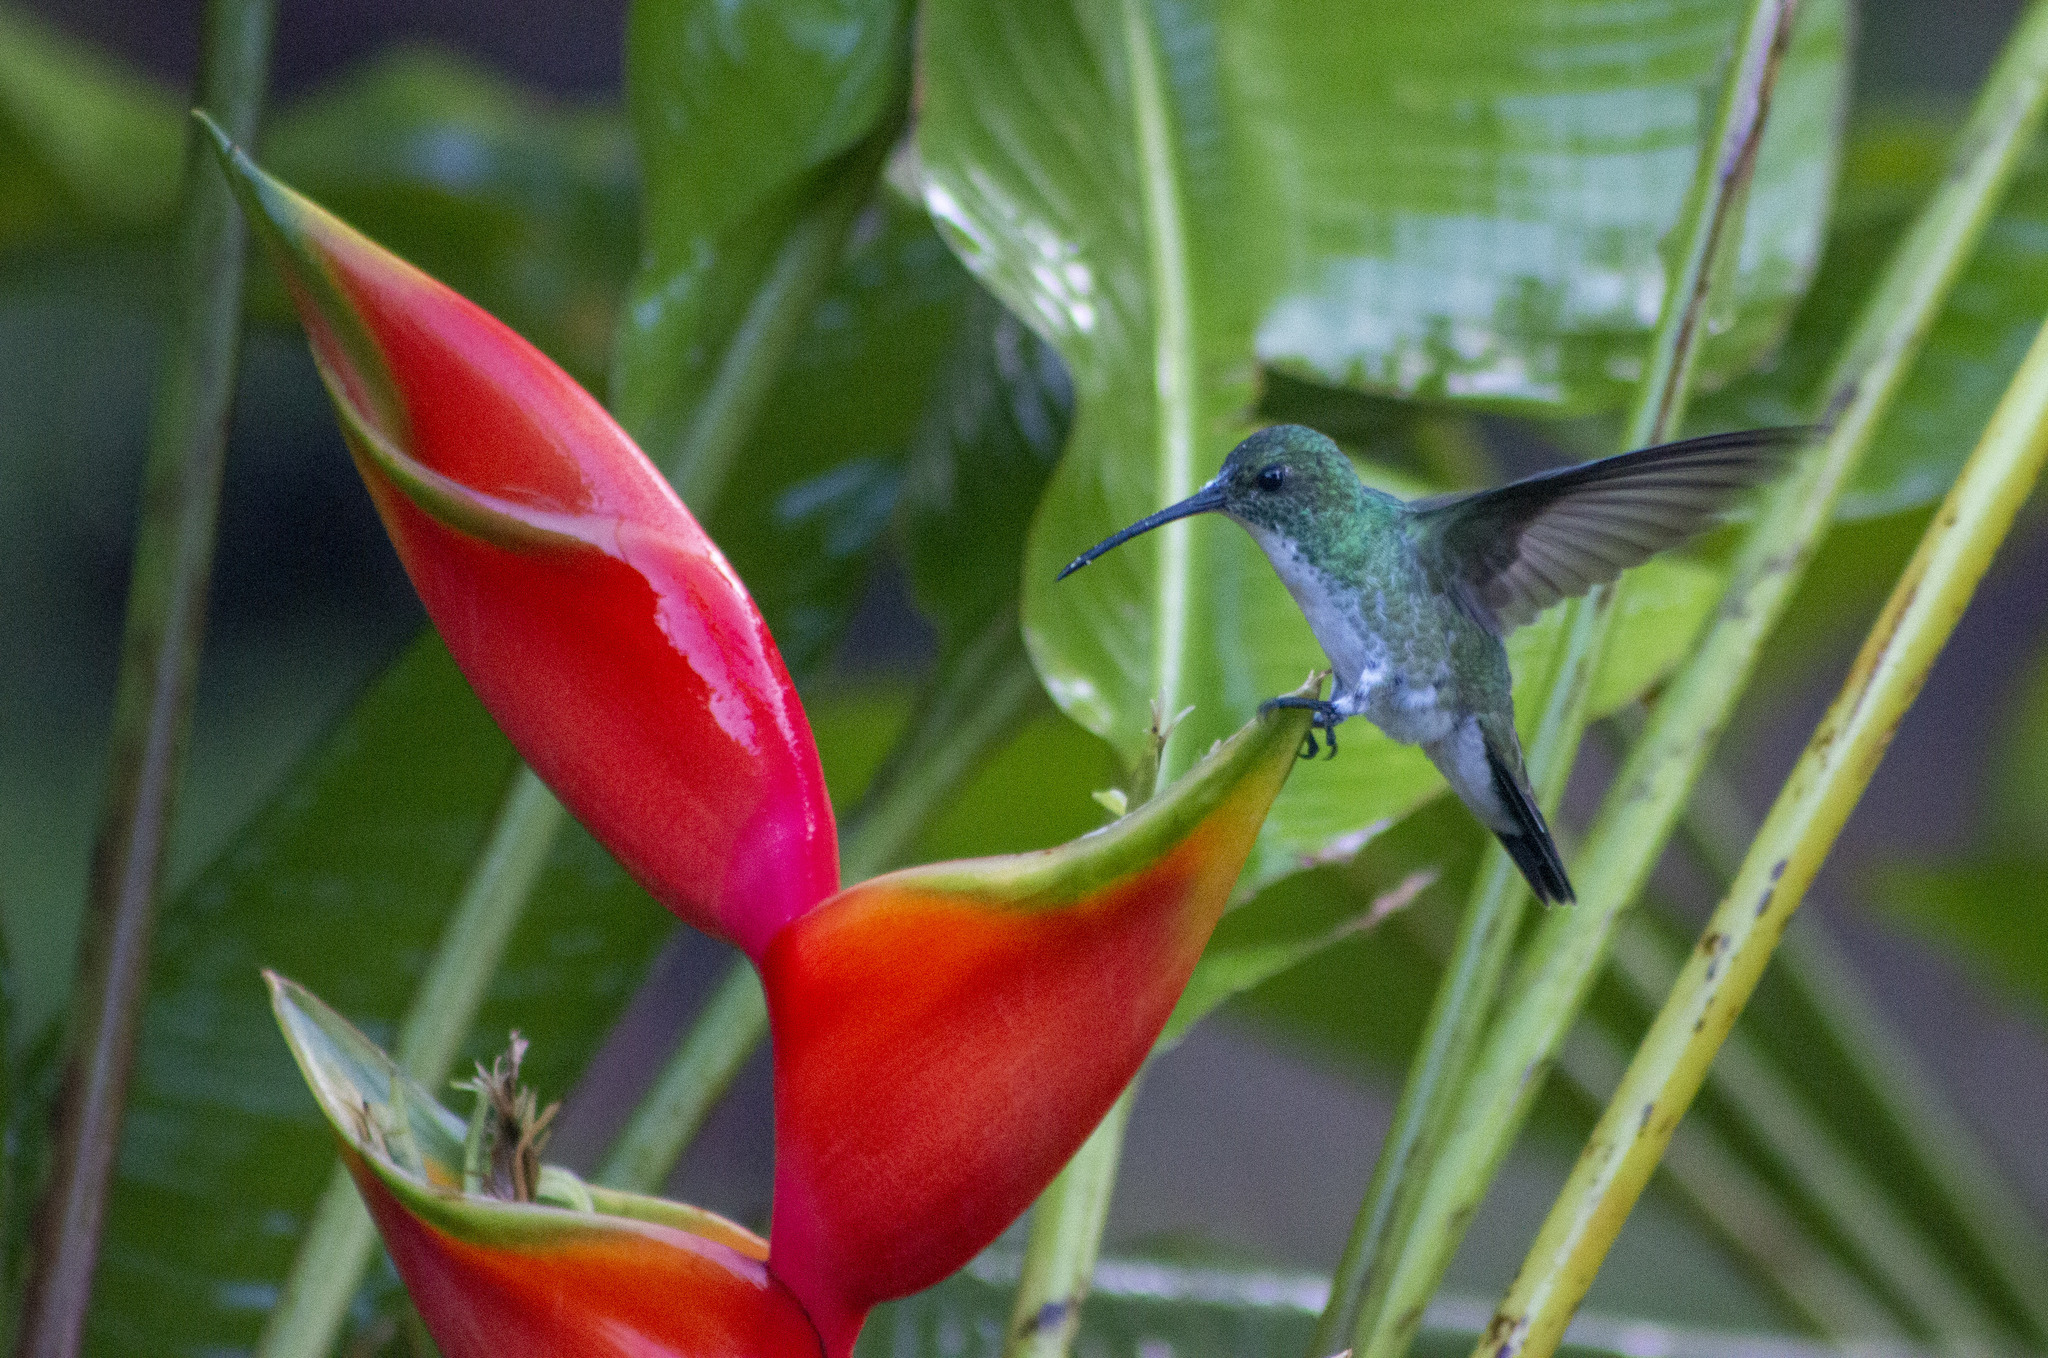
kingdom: Animalia
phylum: Chordata
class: Aves
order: Apodiformes
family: Trochilidae
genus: Chrysuronia
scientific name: Chrysuronia leucogaster
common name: Plain-bellied emerald
